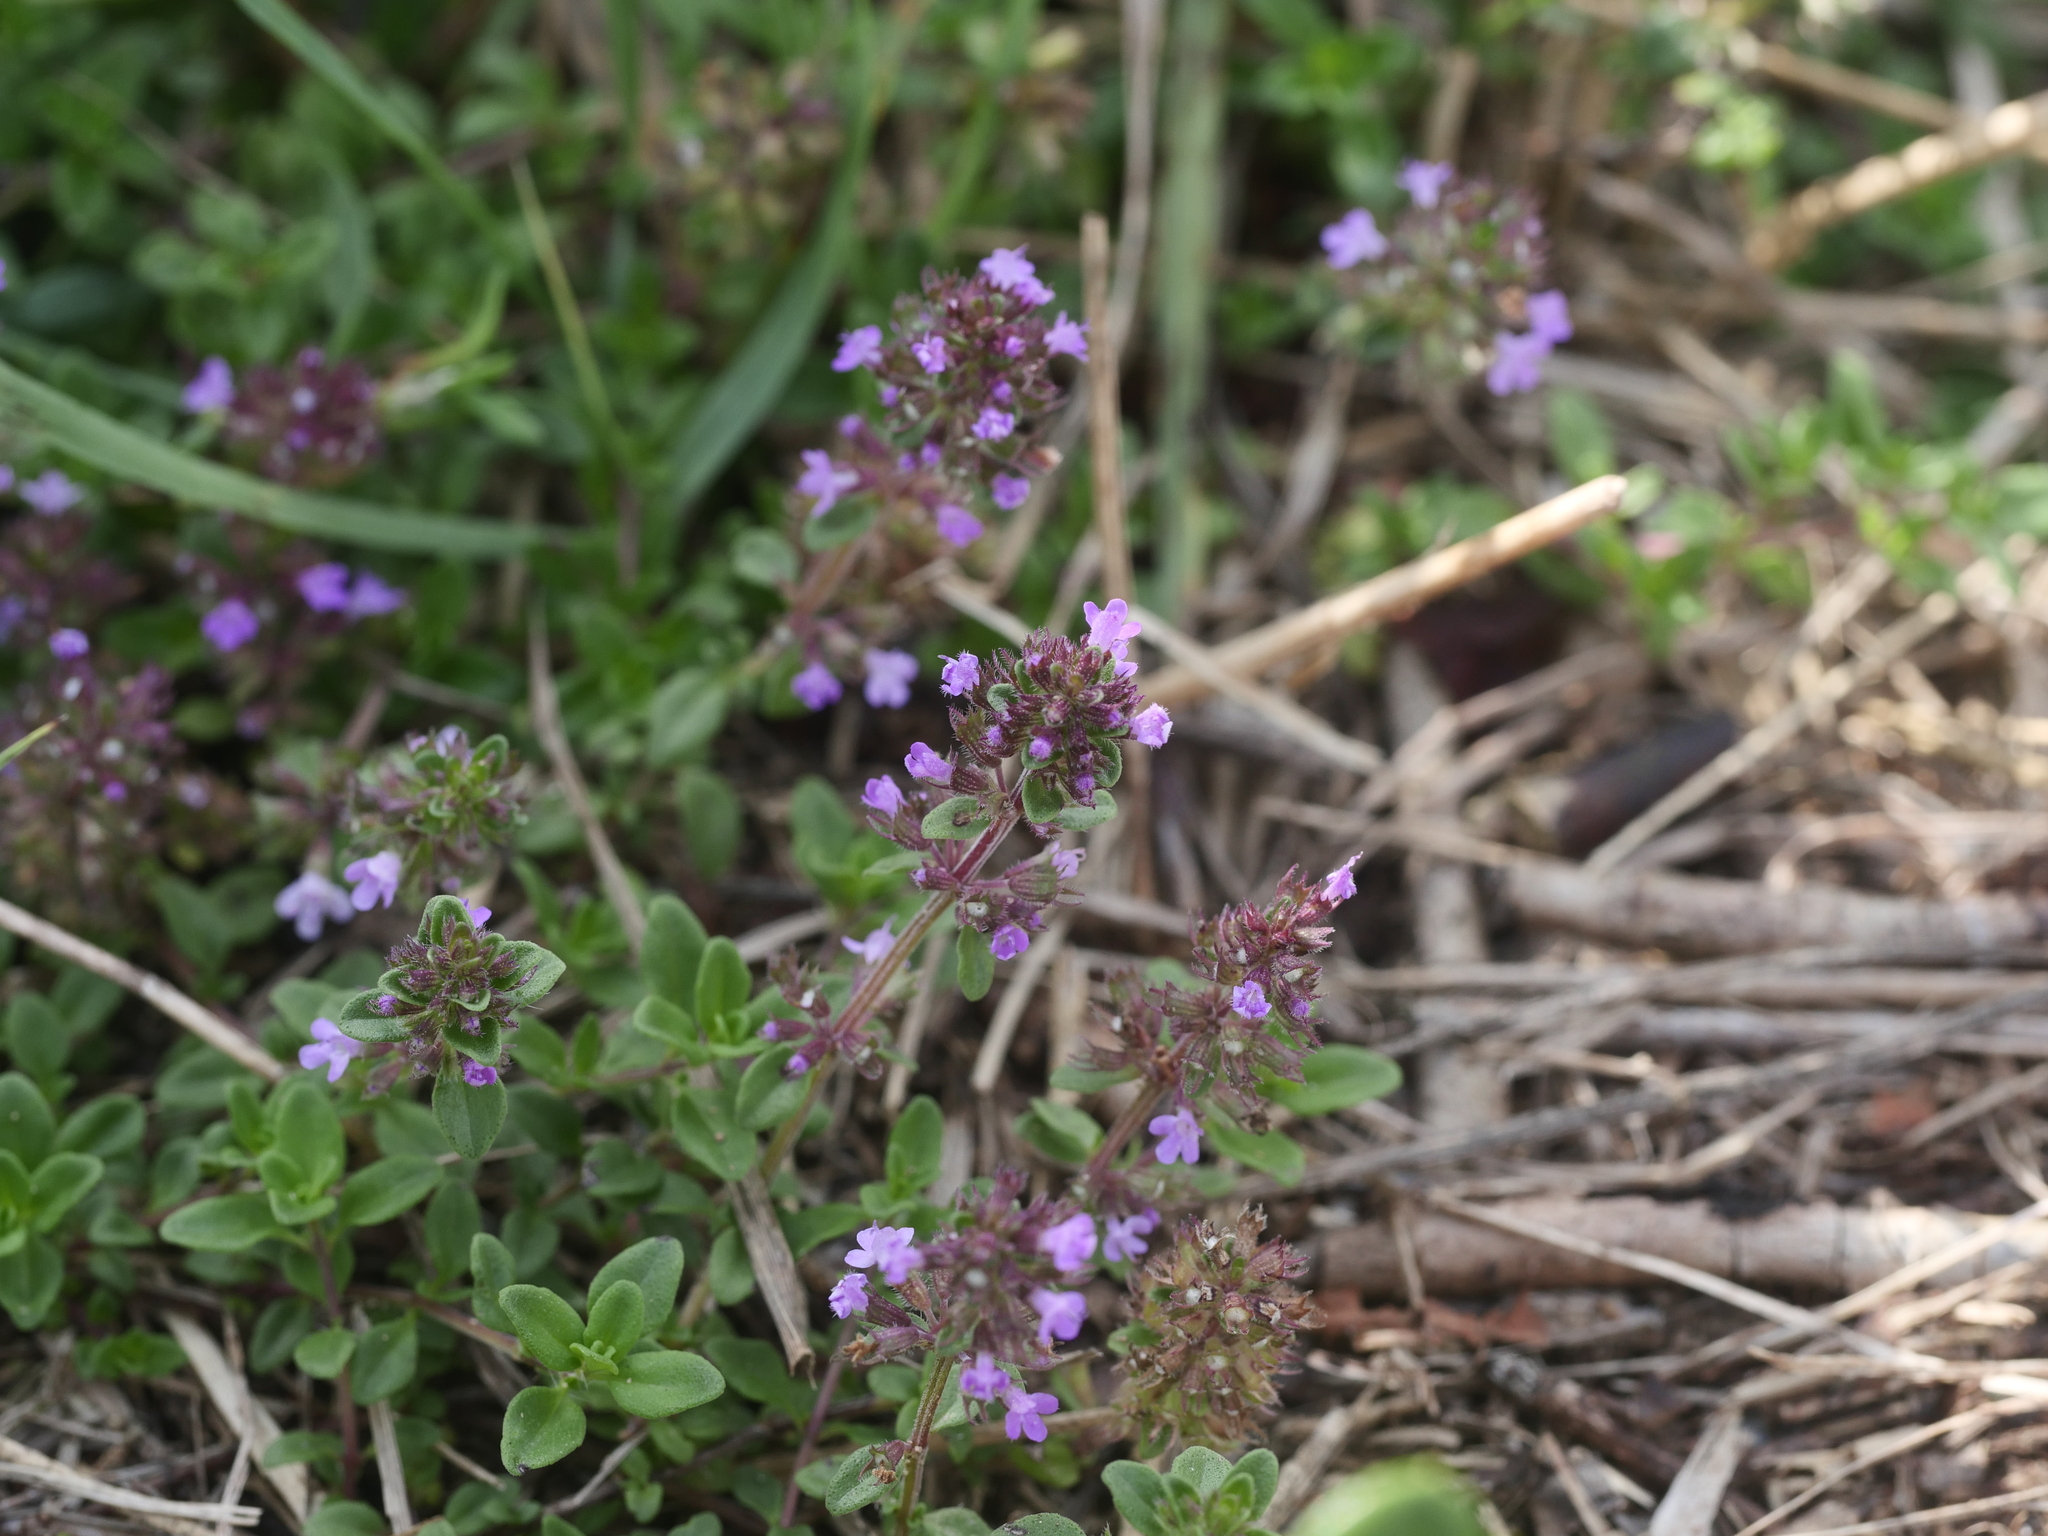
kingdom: Plantae
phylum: Tracheophyta
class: Magnoliopsida
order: Lamiales
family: Lamiaceae
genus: Thymus
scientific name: Thymus pulegioides
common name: Large thyme
